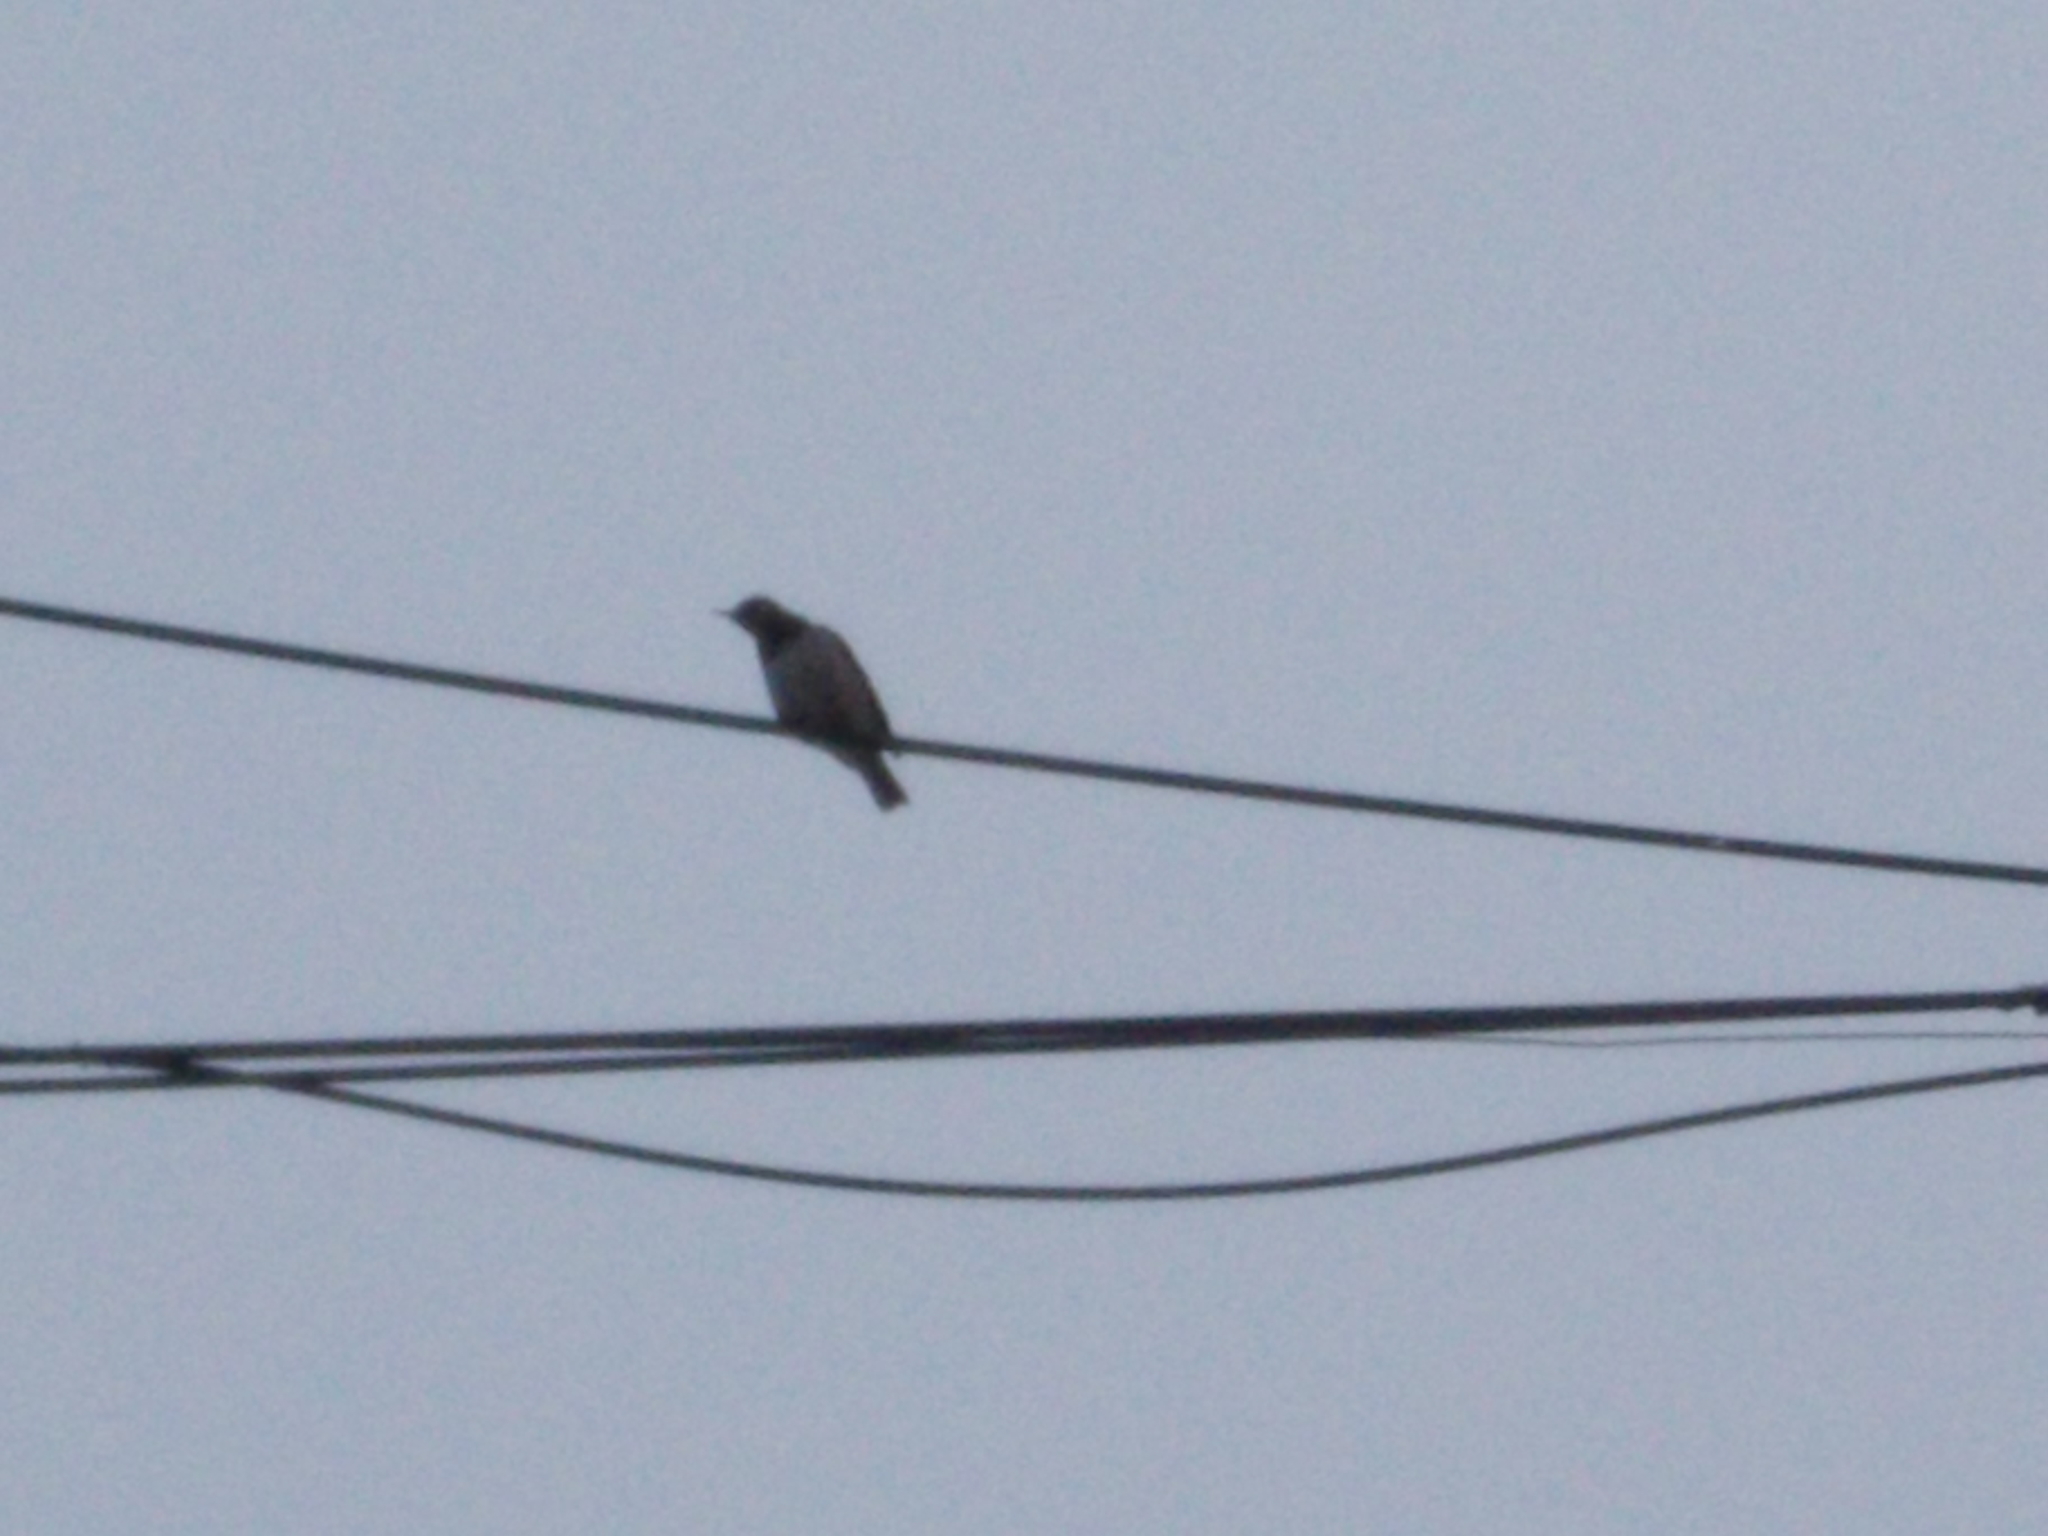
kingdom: Animalia
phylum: Chordata
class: Aves
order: Passeriformes
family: Turdidae
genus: Turdus
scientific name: Turdus atrogularis
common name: Black-throated thrush
